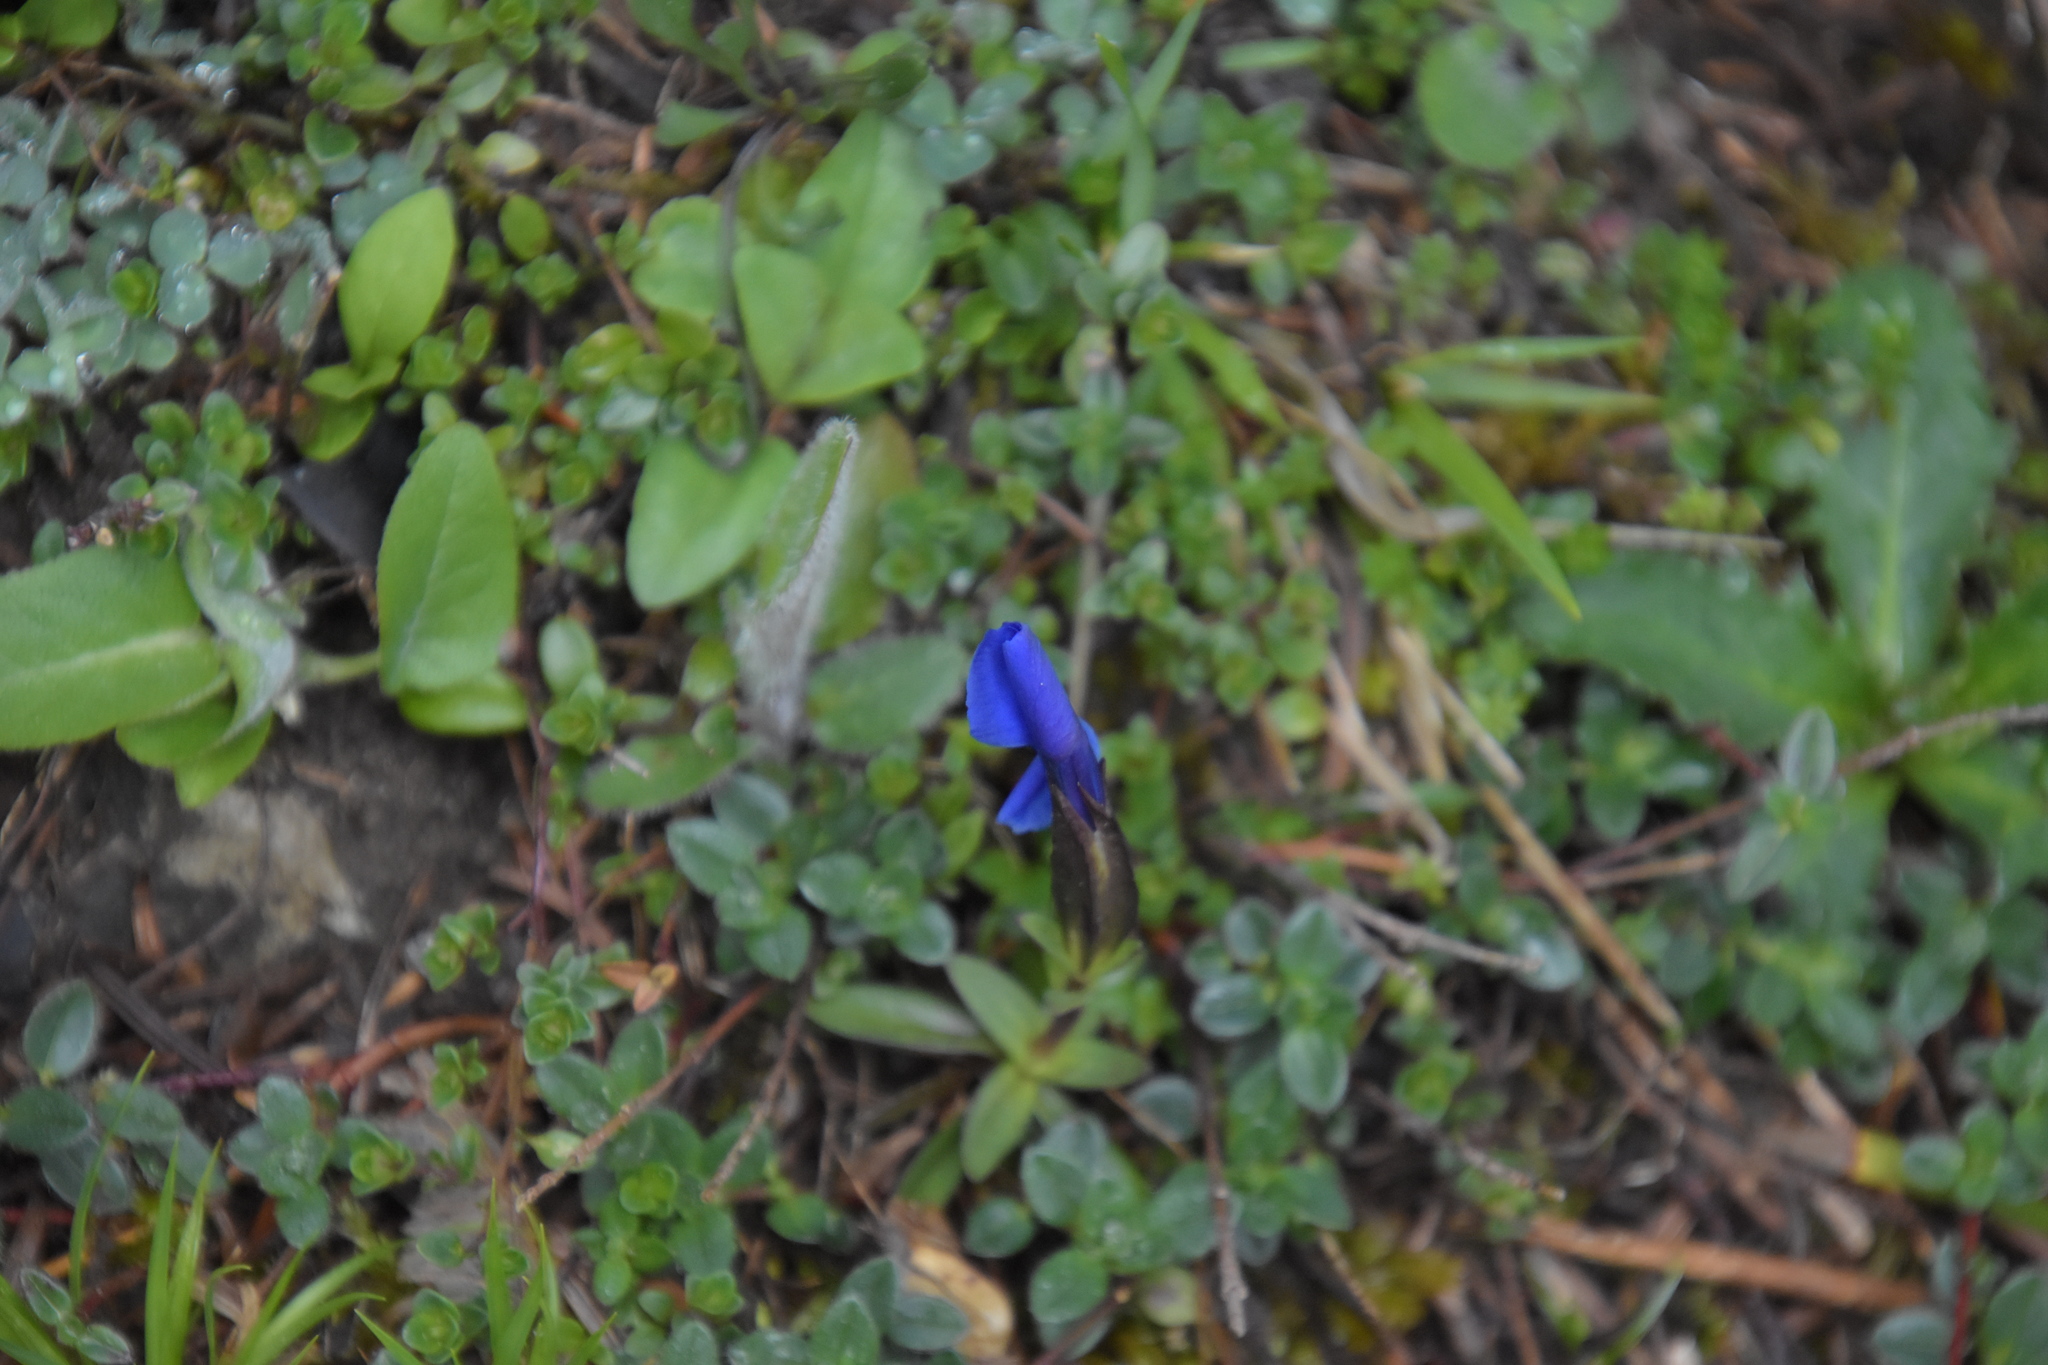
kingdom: Plantae
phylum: Tracheophyta
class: Magnoliopsida
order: Gentianales
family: Gentianaceae
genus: Gentiana
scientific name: Gentiana verna
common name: Spring gentian
